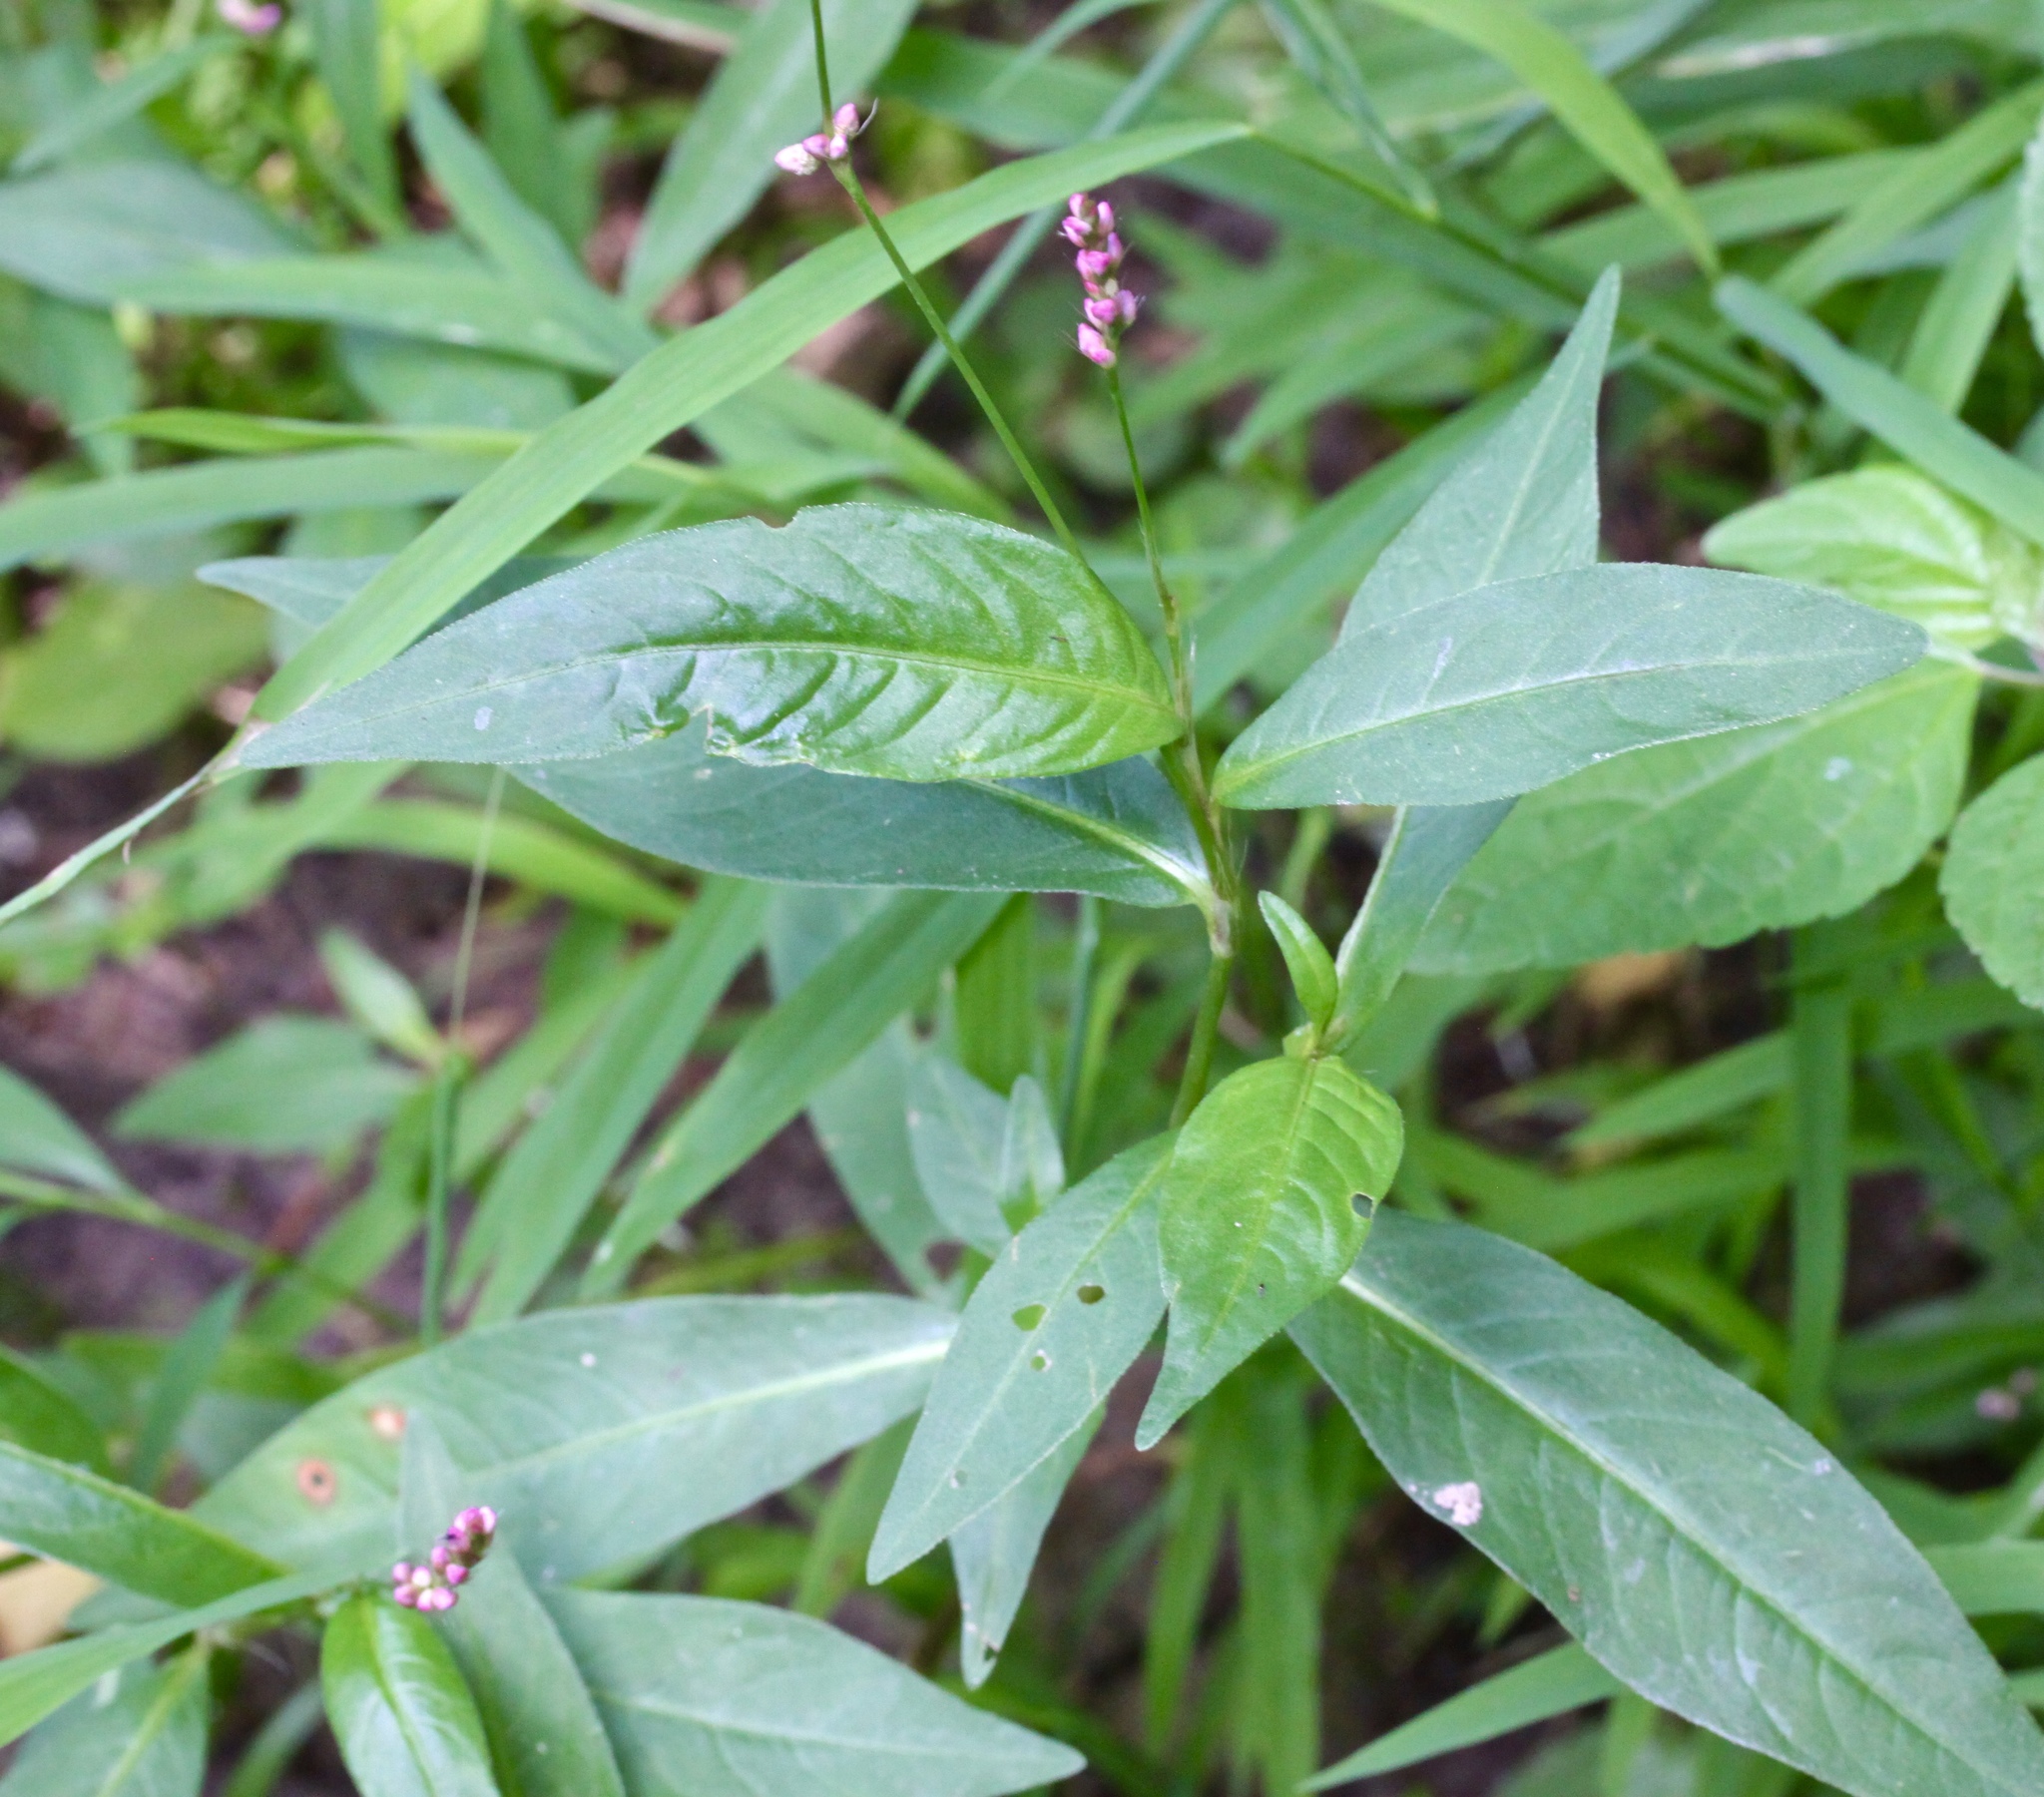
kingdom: Plantae
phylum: Tracheophyta
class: Magnoliopsida
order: Caryophyllales
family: Polygonaceae
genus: Persicaria
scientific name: Persicaria longiseta
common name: Bristly lady's-thumb
